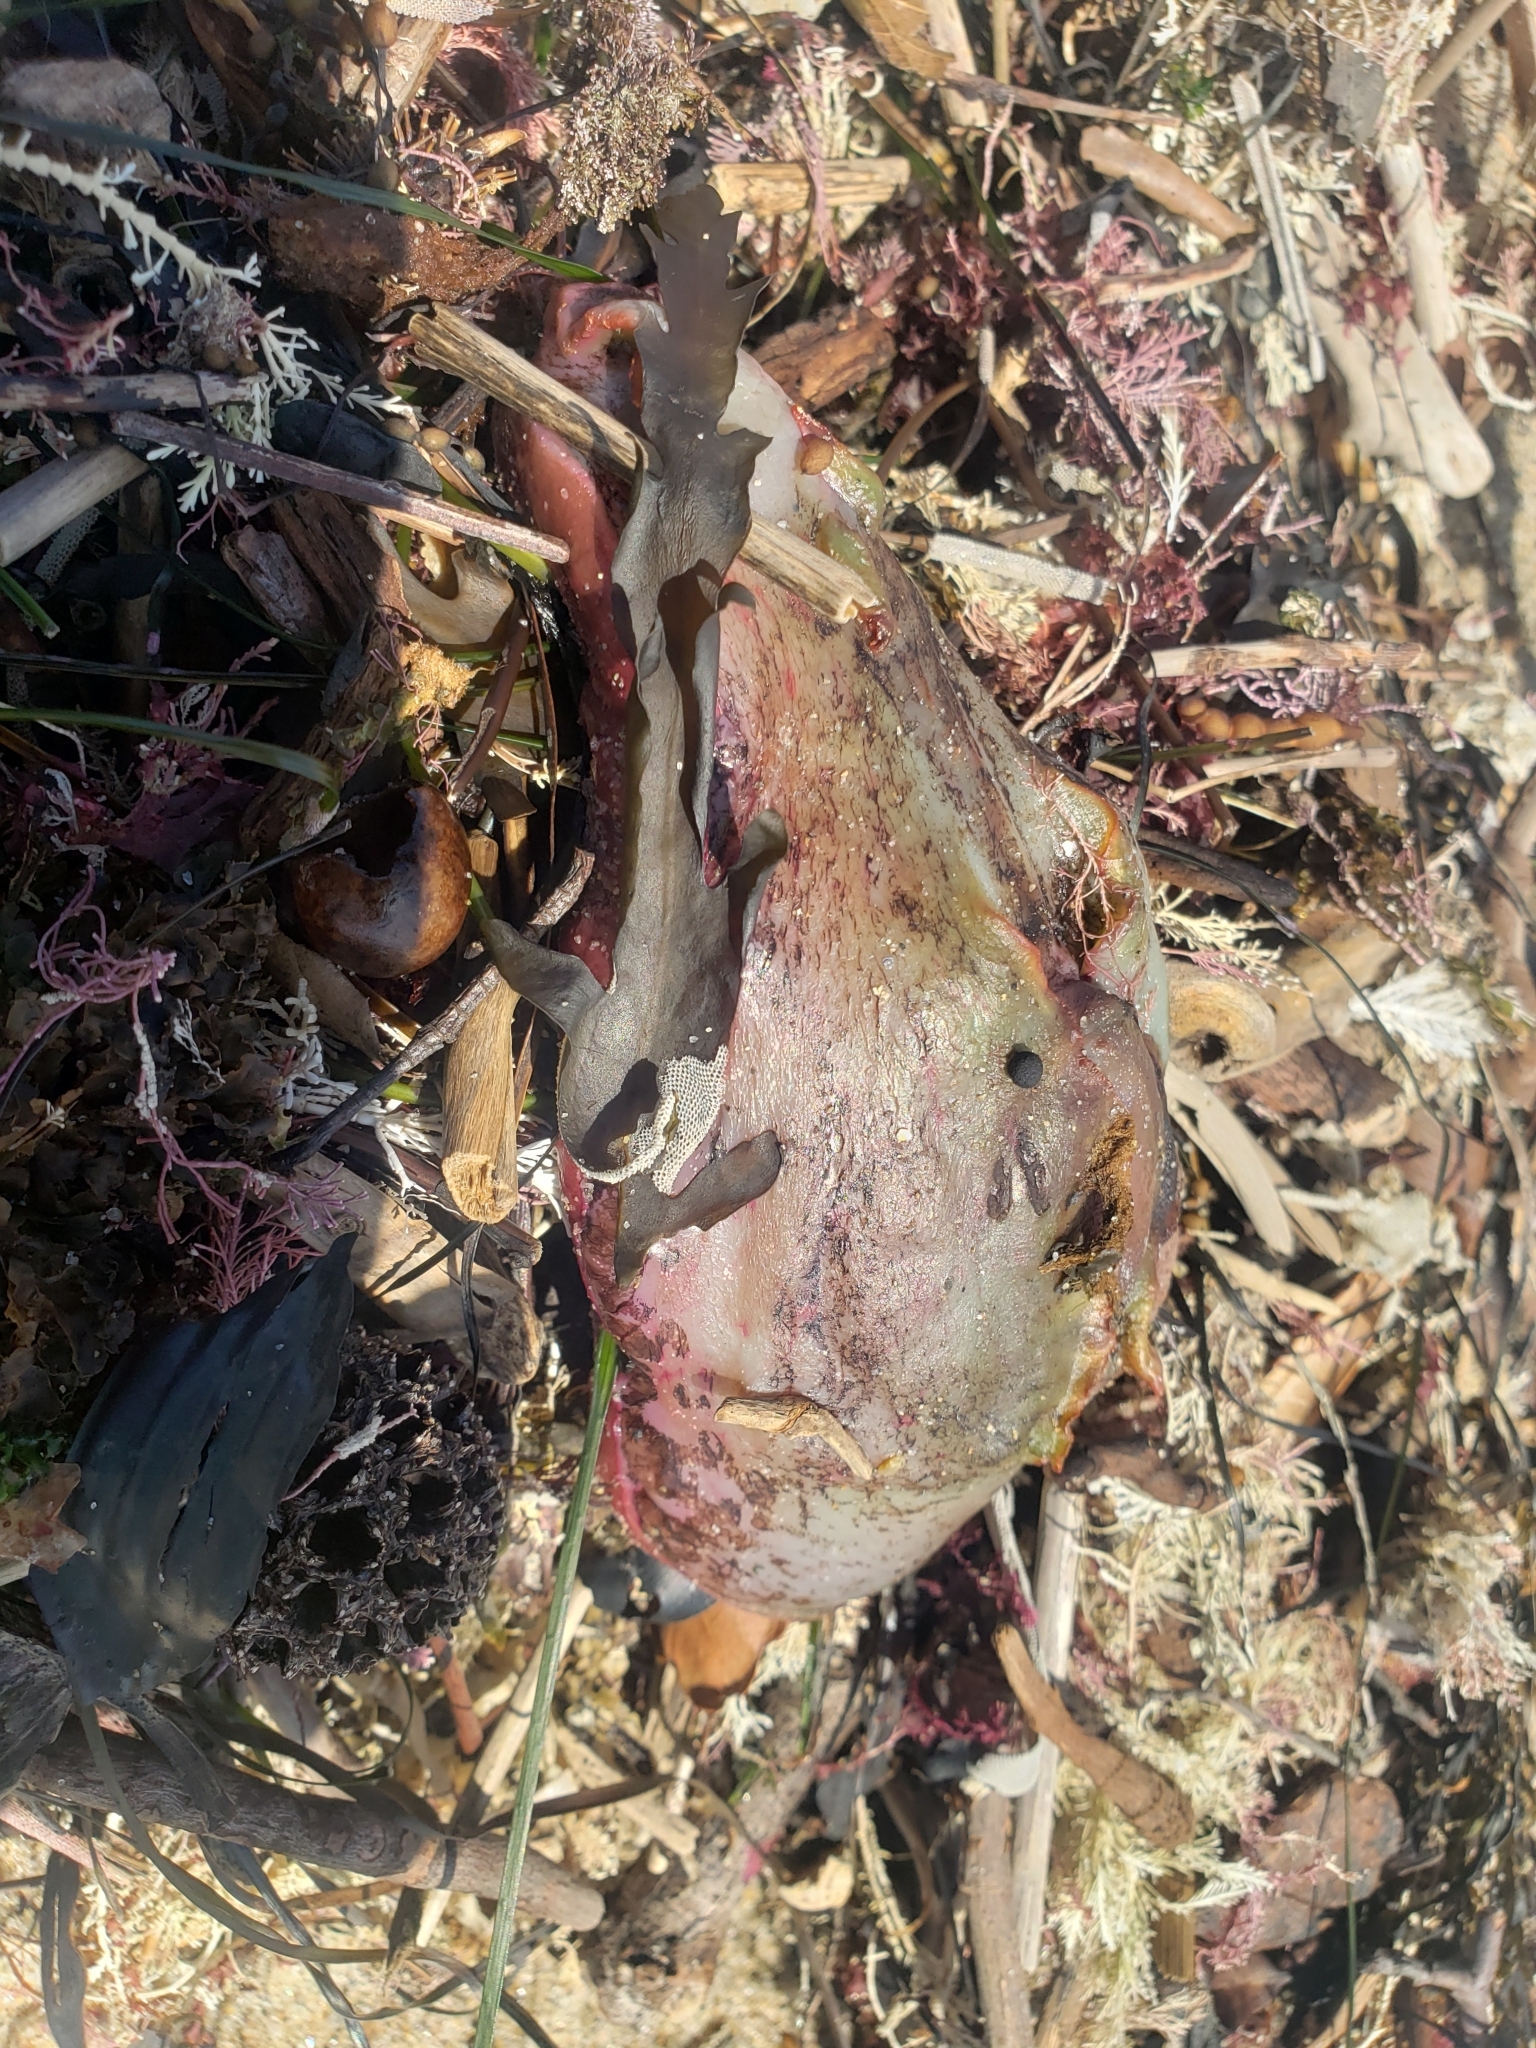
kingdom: Animalia
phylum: Mollusca
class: Gastropoda
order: Aplysiida
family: Aplysiidae
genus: Aplysia
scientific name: Aplysia californica
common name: California seahare
